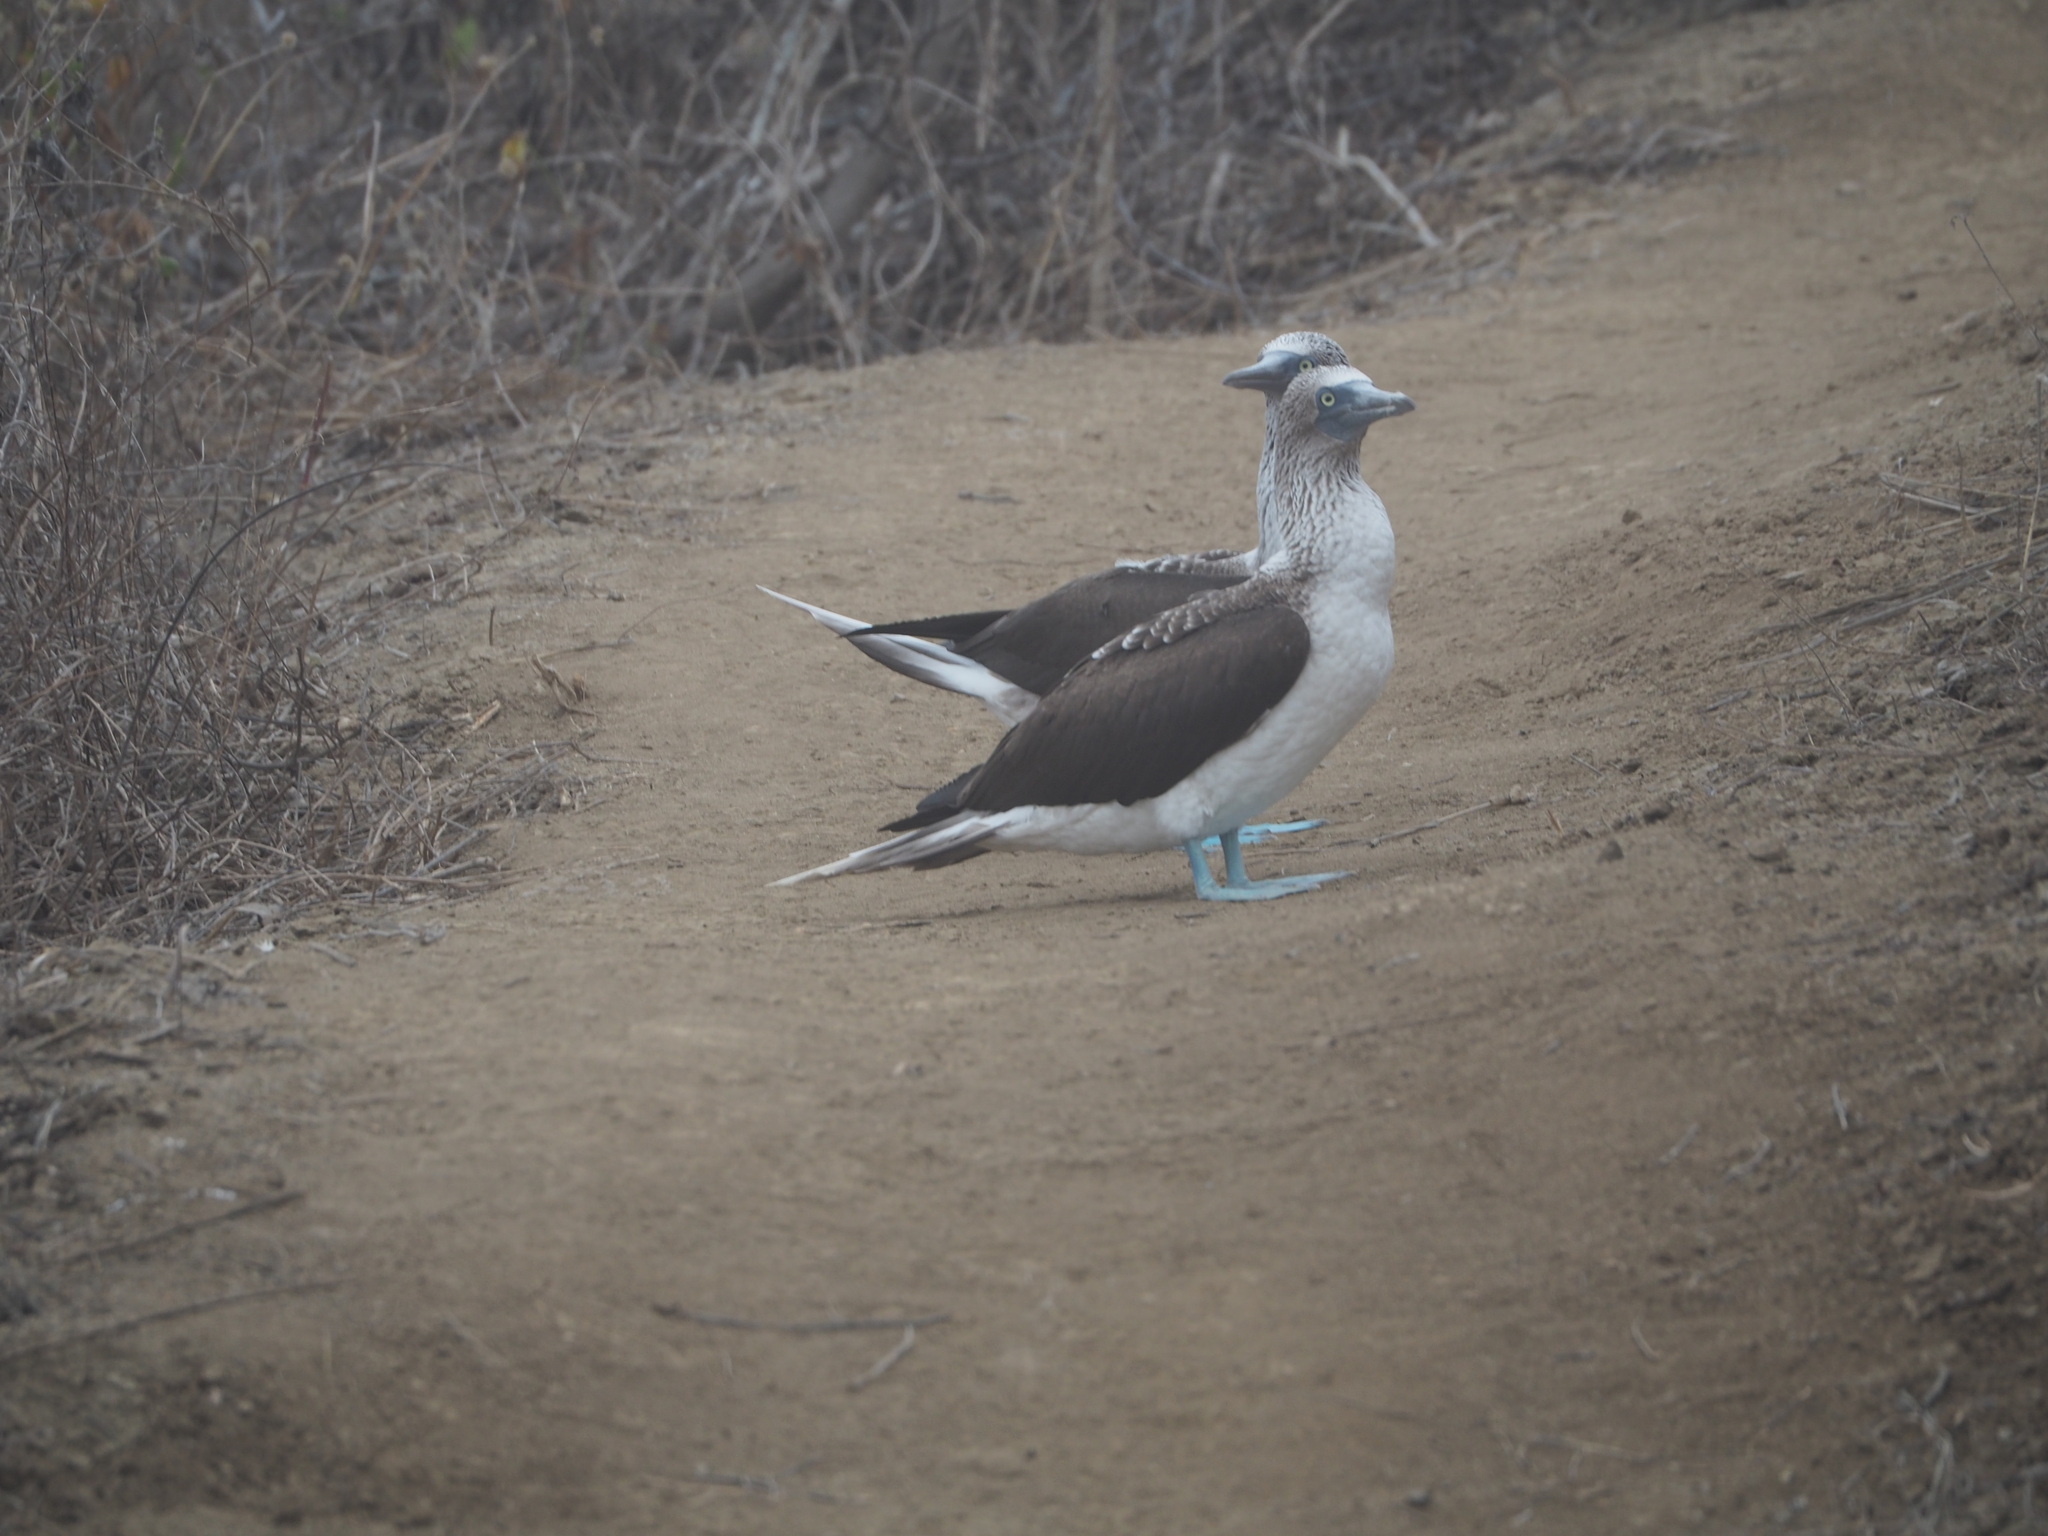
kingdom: Animalia
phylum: Chordata
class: Aves
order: Suliformes
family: Sulidae
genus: Sula
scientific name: Sula nebouxii
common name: Blue-footed booby
